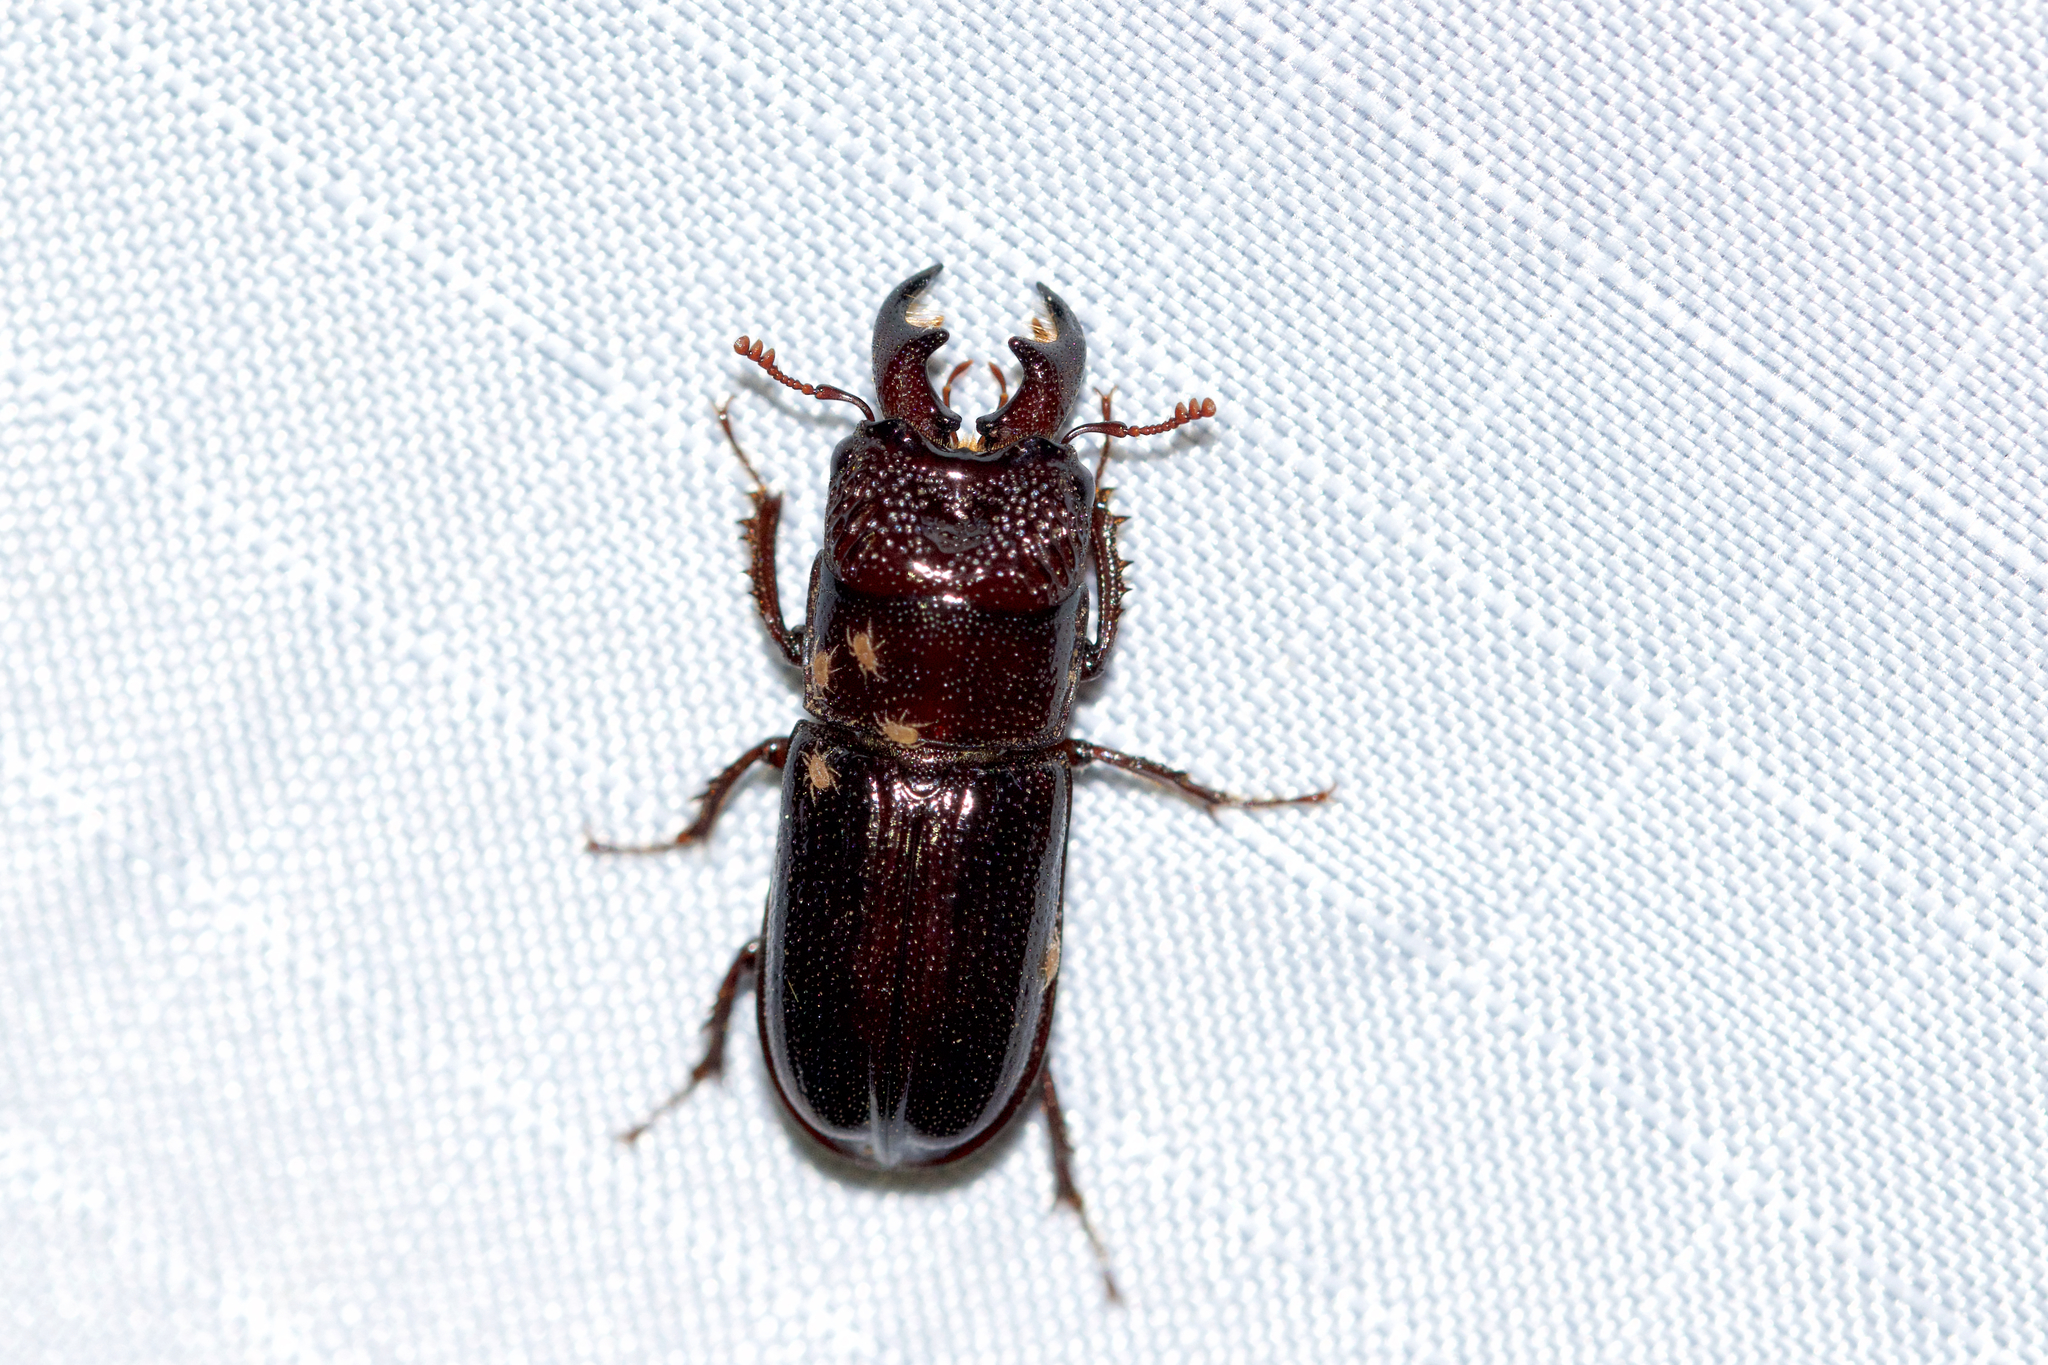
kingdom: Animalia
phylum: Arthropoda
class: Insecta
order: Coleoptera
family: Lucanidae
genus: Ceruchus
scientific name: Ceruchus piceus
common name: Red-rot decay stag beetle
